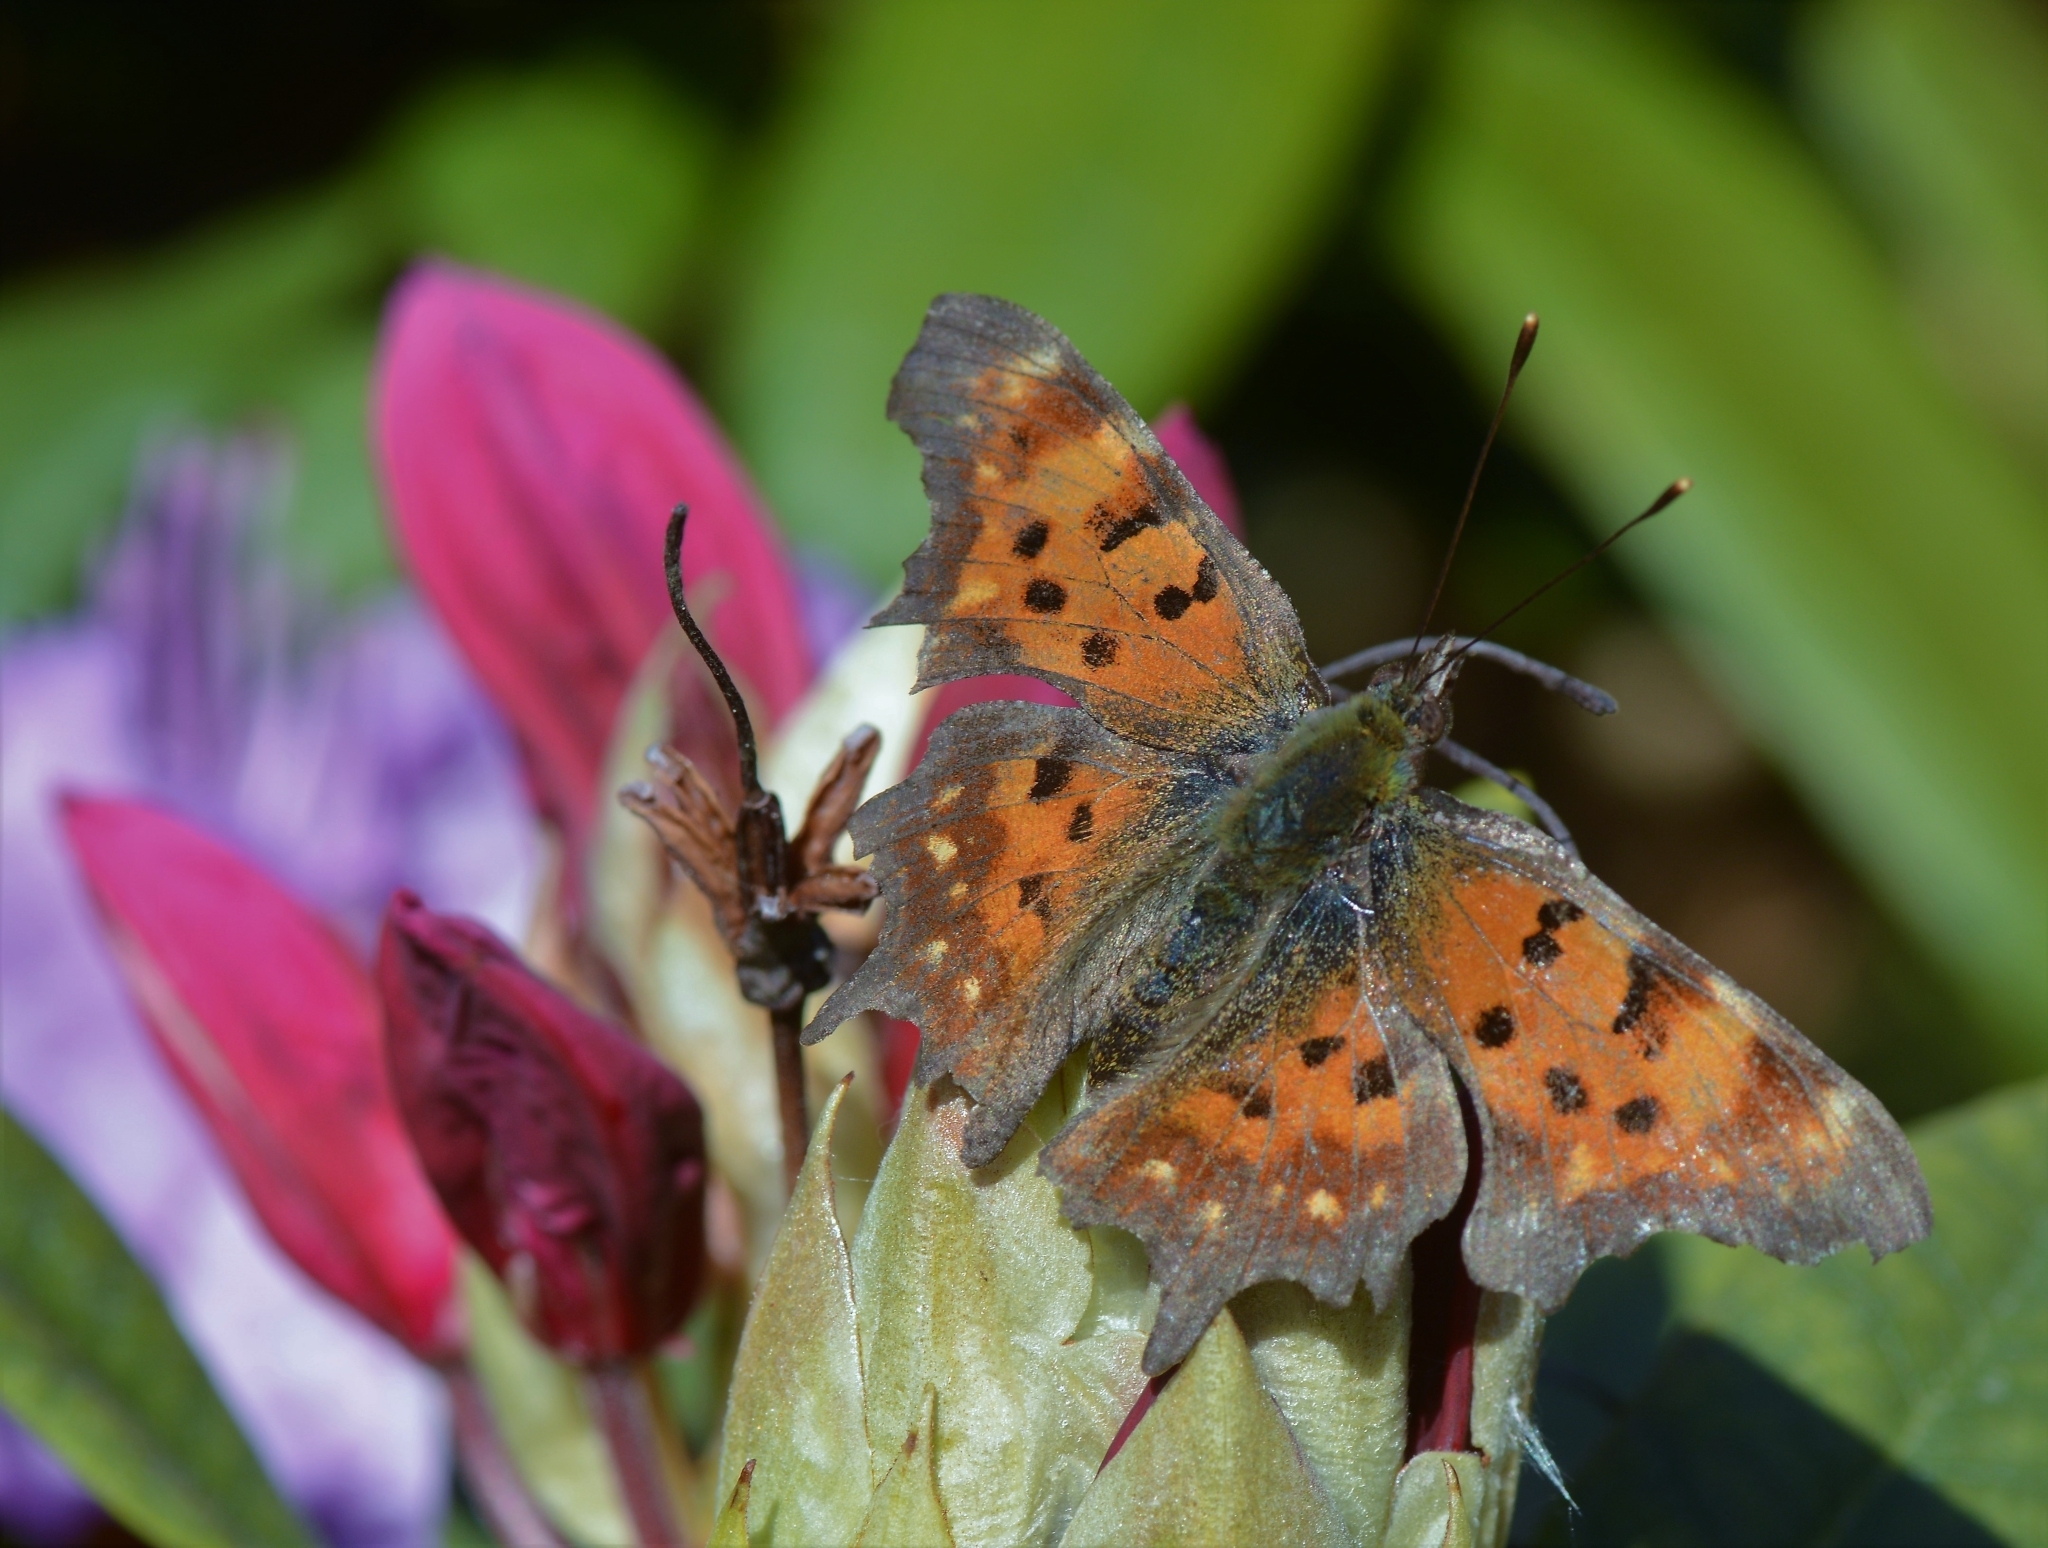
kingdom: Animalia
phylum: Arthropoda
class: Insecta
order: Lepidoptera
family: Nymphalidae
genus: Polygonia
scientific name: Polygonia c-album
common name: Comma
